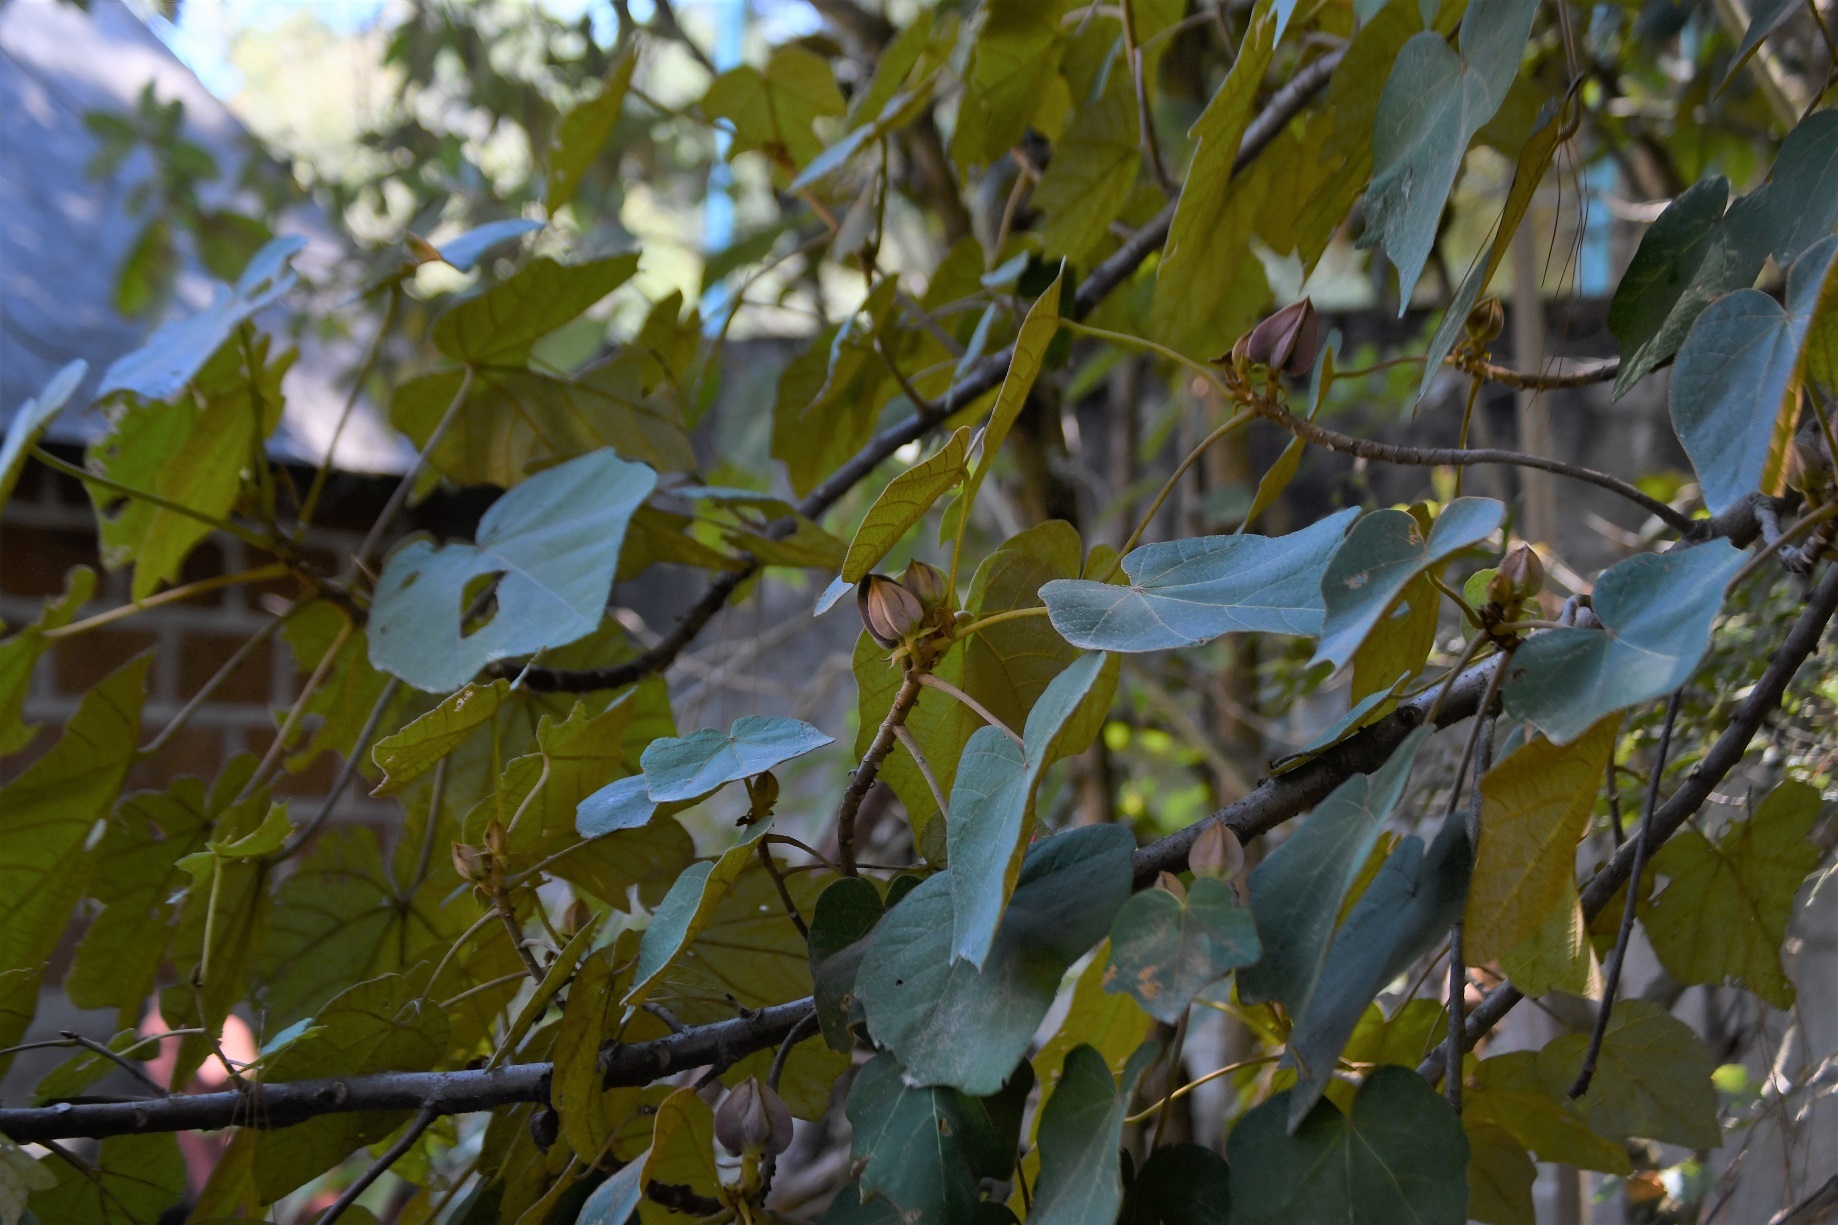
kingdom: Plantae
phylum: Tracheophyta
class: Magnoliopsida
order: Malvales
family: Malvaceae
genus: Chiranthodendron
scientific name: Chiranthodendron pentadactylon
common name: Mexican-hat-plant
